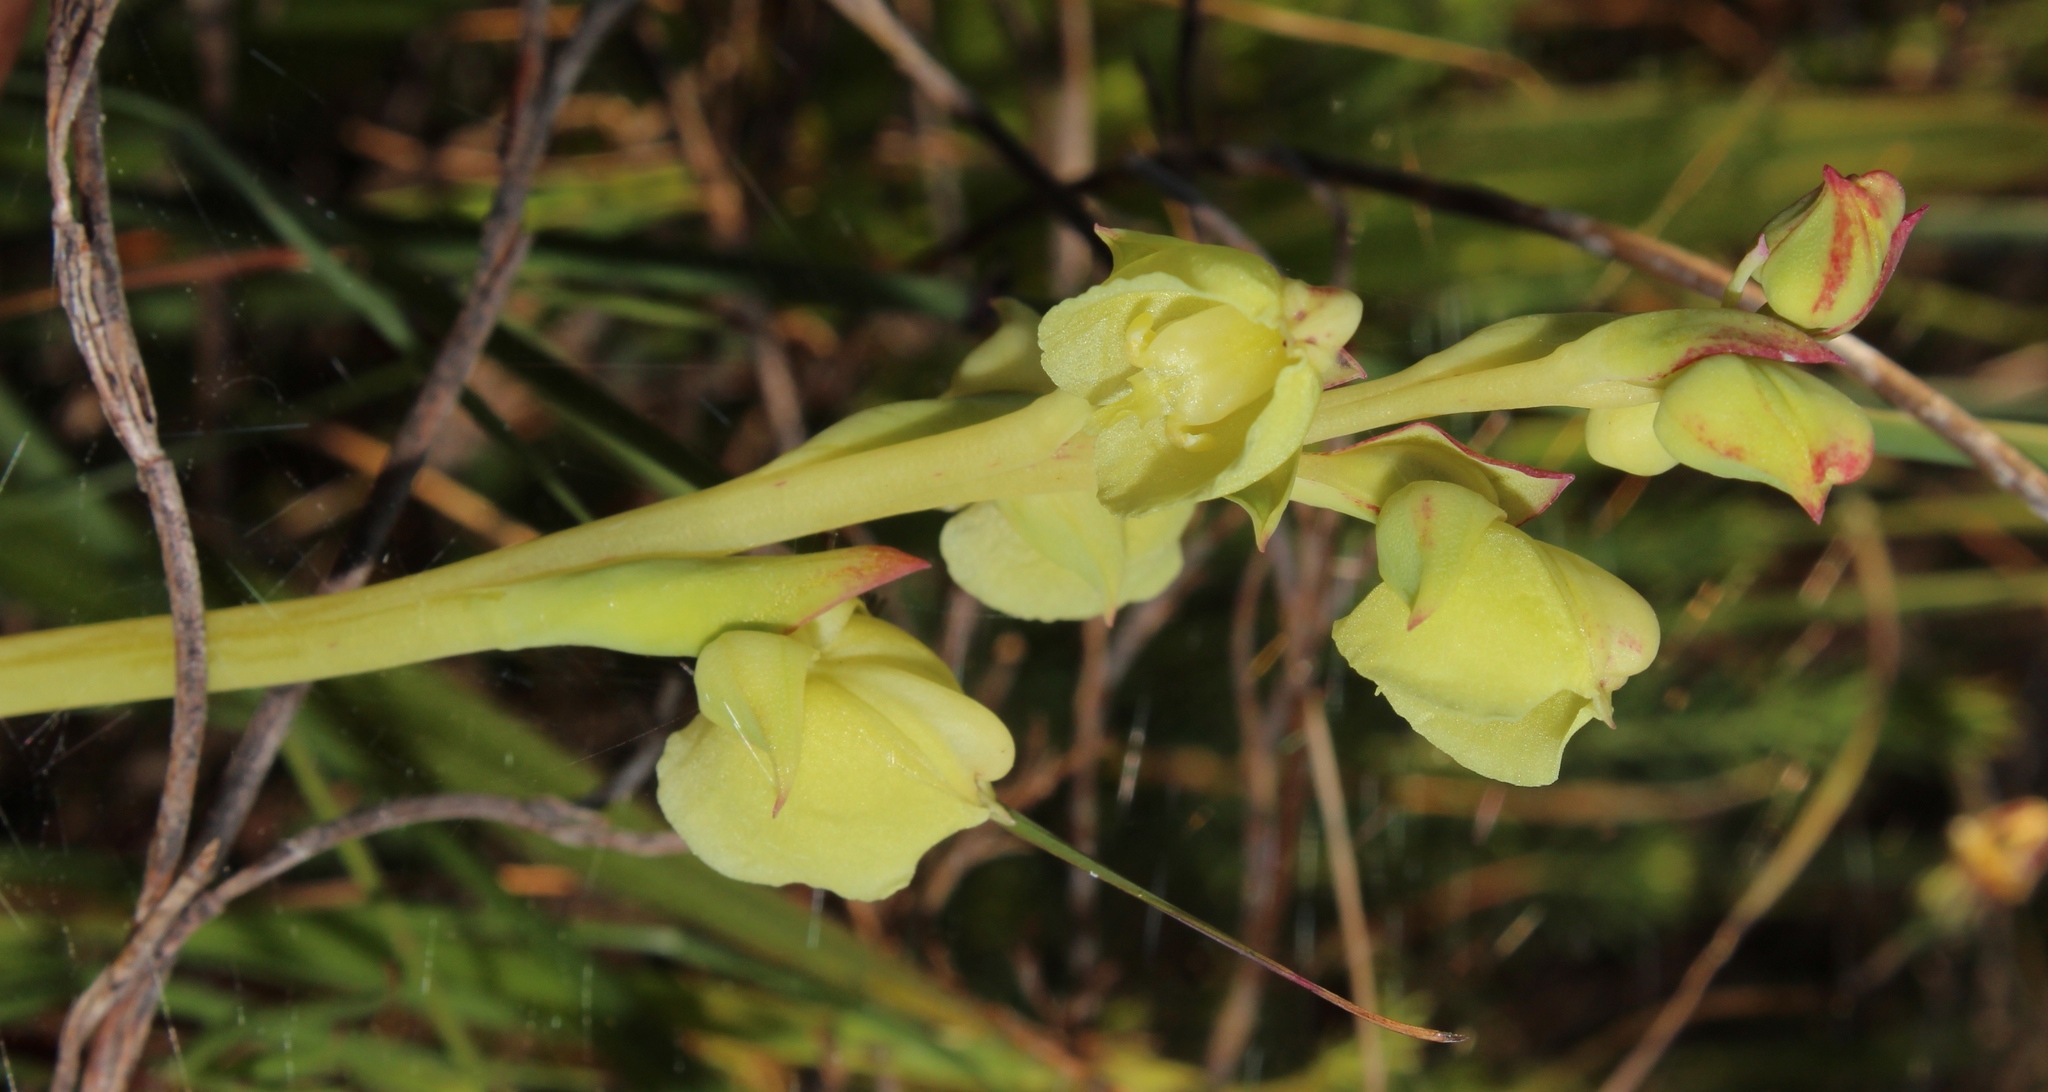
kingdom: Plantae
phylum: Tracheophyta
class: Liliopsida
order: Asparagales
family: Orchidaceae
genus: Pterygodium
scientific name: Pterygodium catholicum
